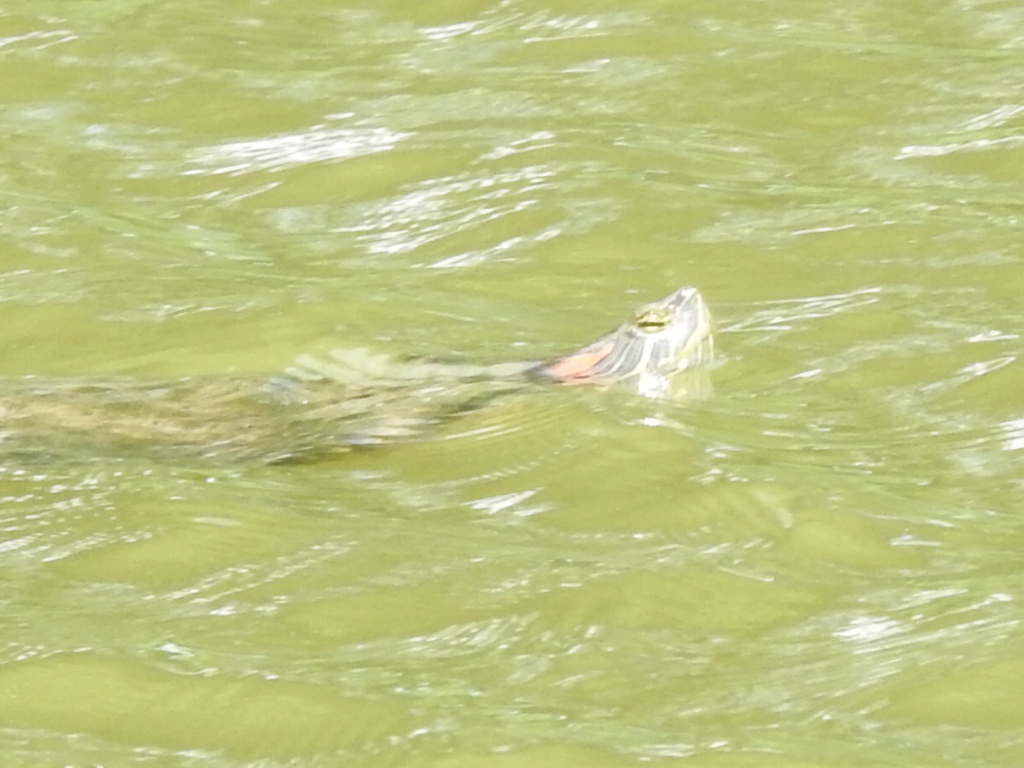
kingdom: Animalia
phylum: Chordata
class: Testudines
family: Emydidae
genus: Trachemys
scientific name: Trachemys scripta
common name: Slider
